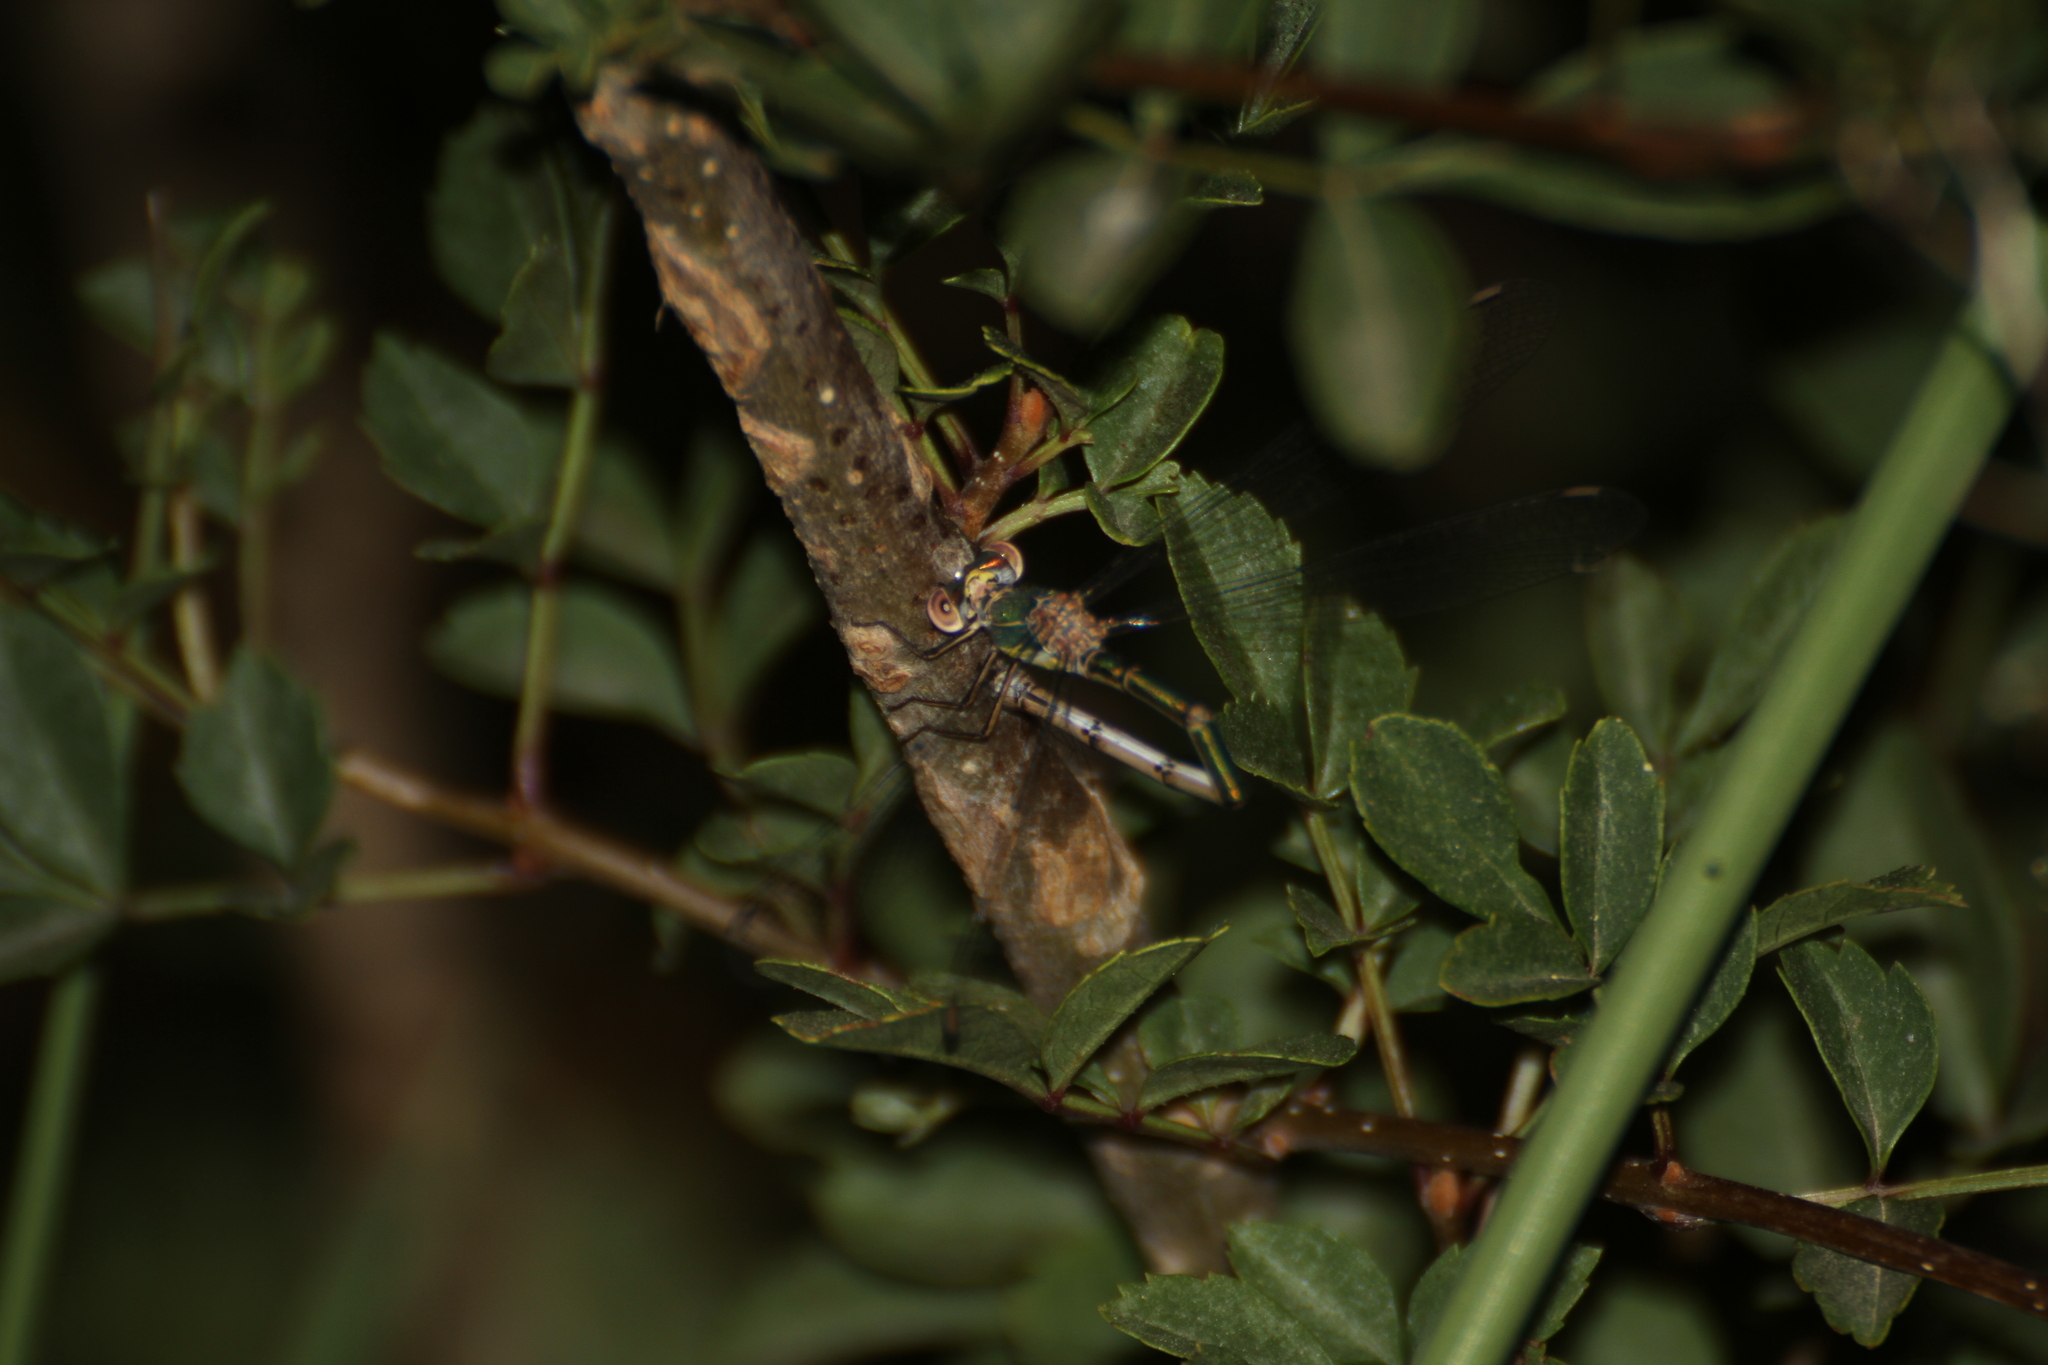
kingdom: Animalia
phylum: Arthropoda
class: Insecta
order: Odonata
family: Lestidae
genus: Chalcolestes
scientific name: Chalcolestes viridis
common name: Green emerald damselfly
